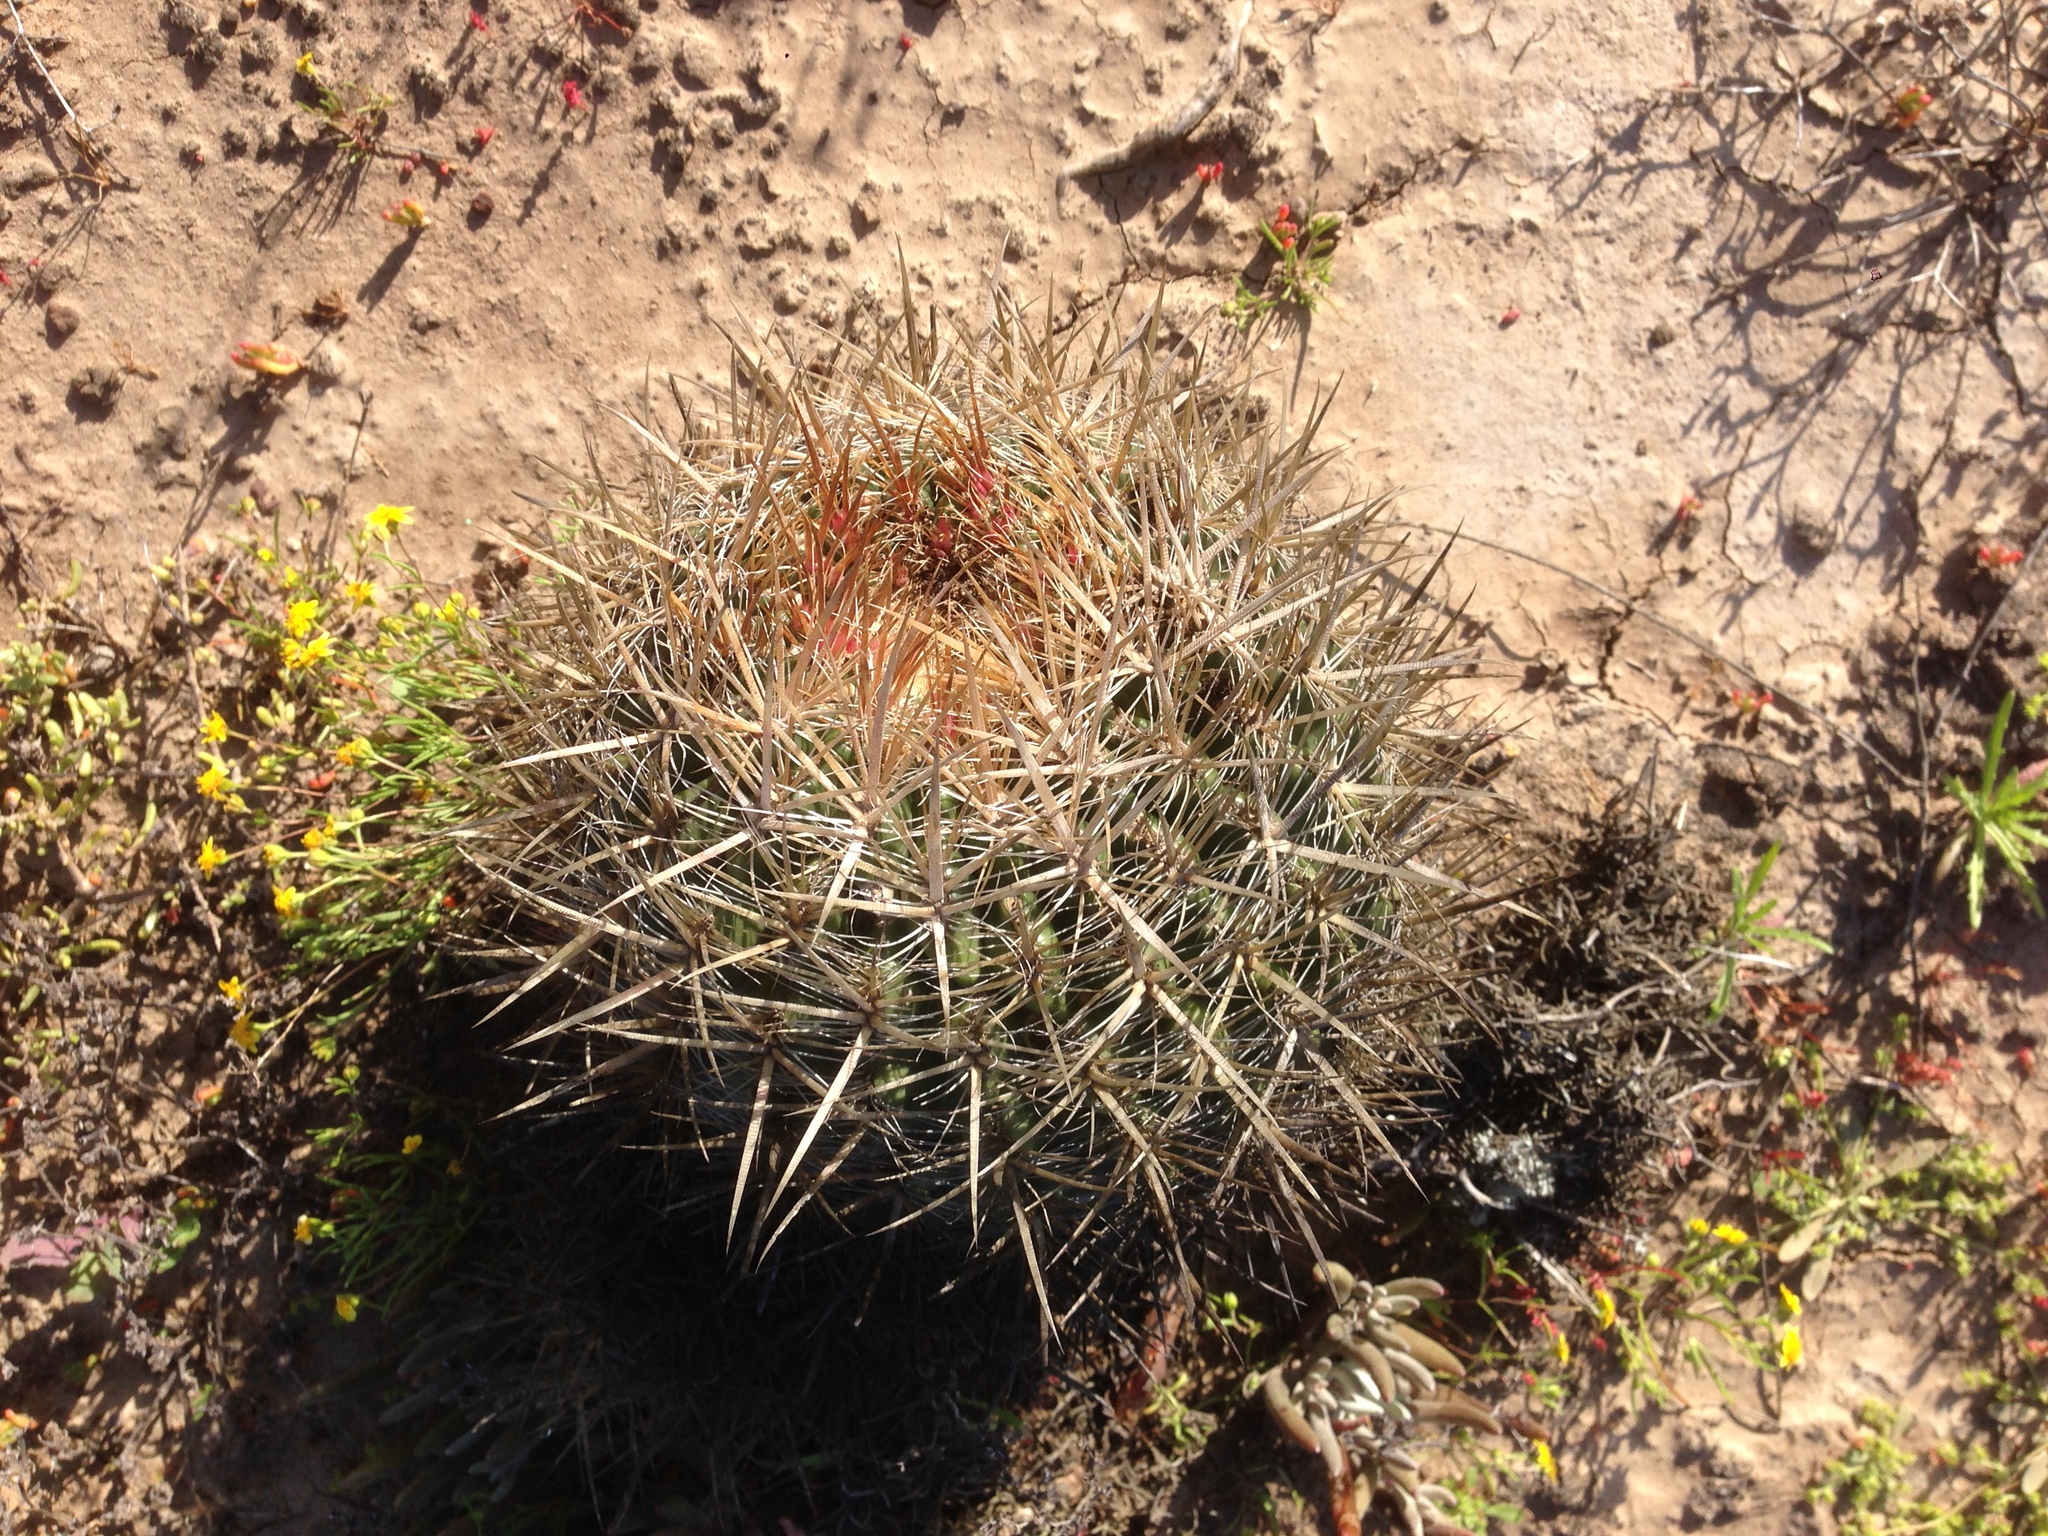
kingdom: Plantae
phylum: Tracheophyta
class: Magnoliopsida
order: Caryophyllales
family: Cactaceae
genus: Ferocactus
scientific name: Ferocactus viridescens
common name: San diego barrel cactus
